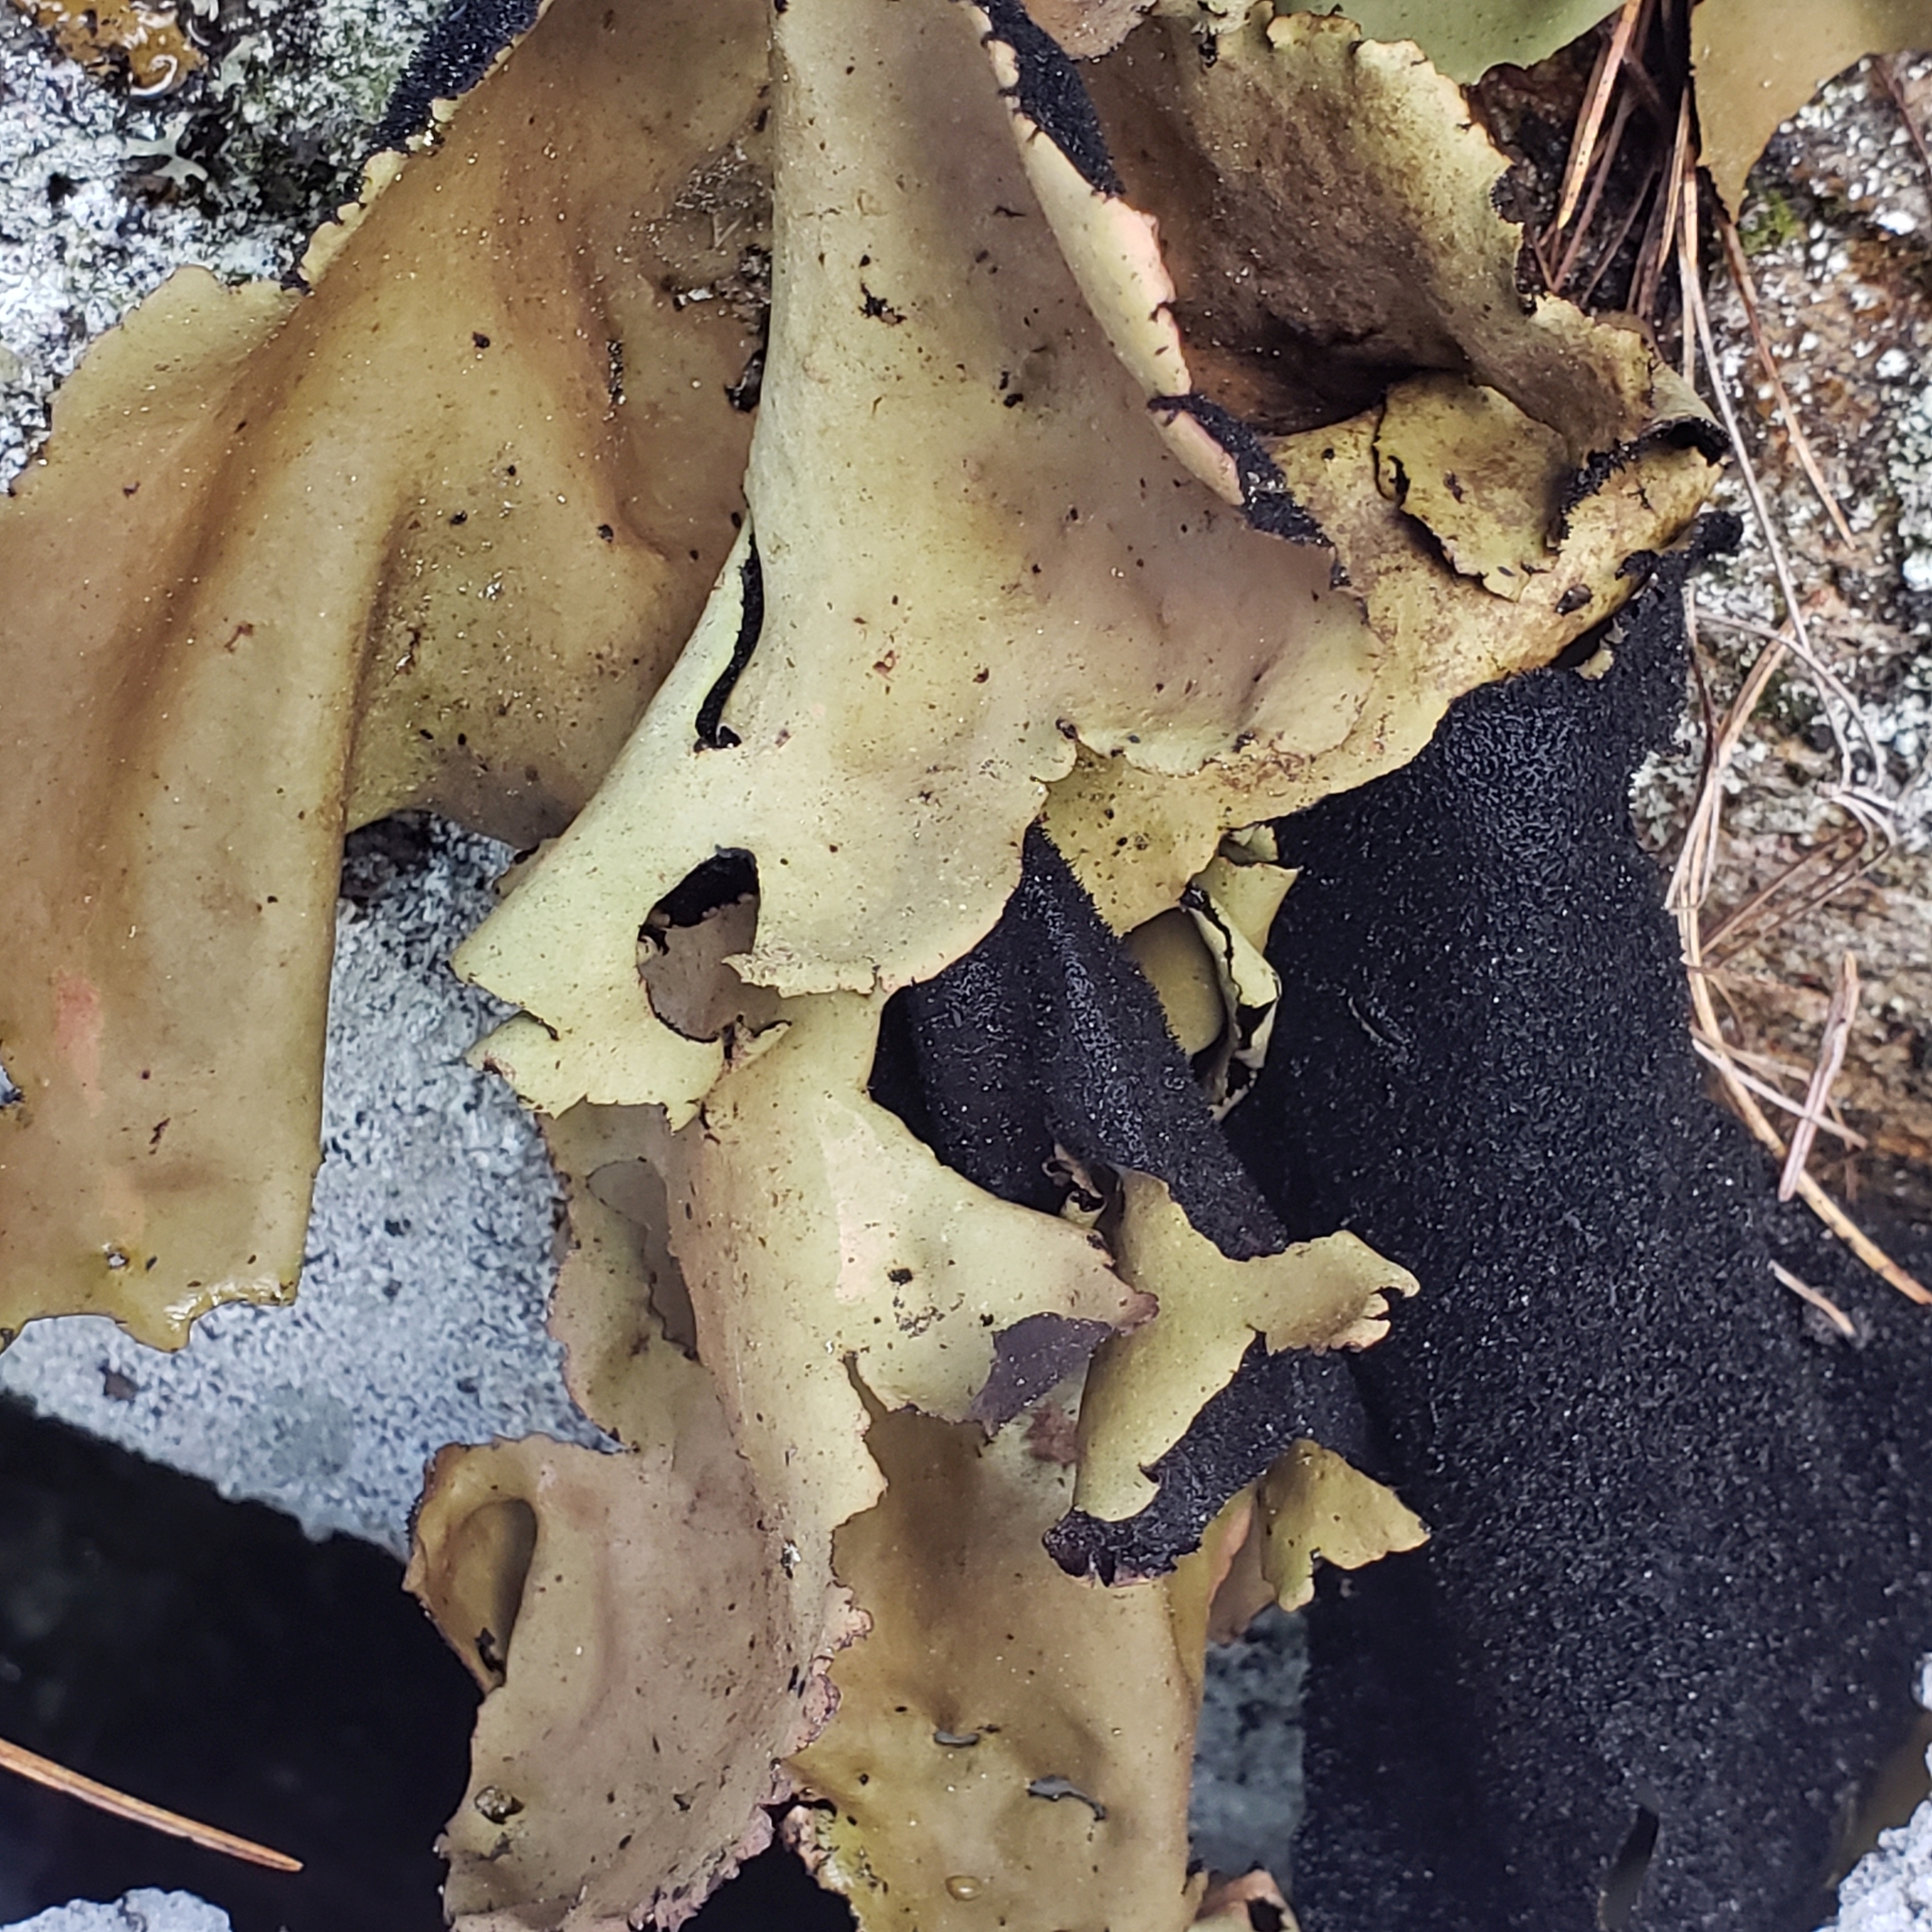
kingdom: Fungi
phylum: Ascomycota
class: Lecanoromycetes
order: Umbilicariales
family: Umbilicariaceae
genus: Umbilicaria
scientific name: Umbilicaria mammulata
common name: Smooth rock tripe
